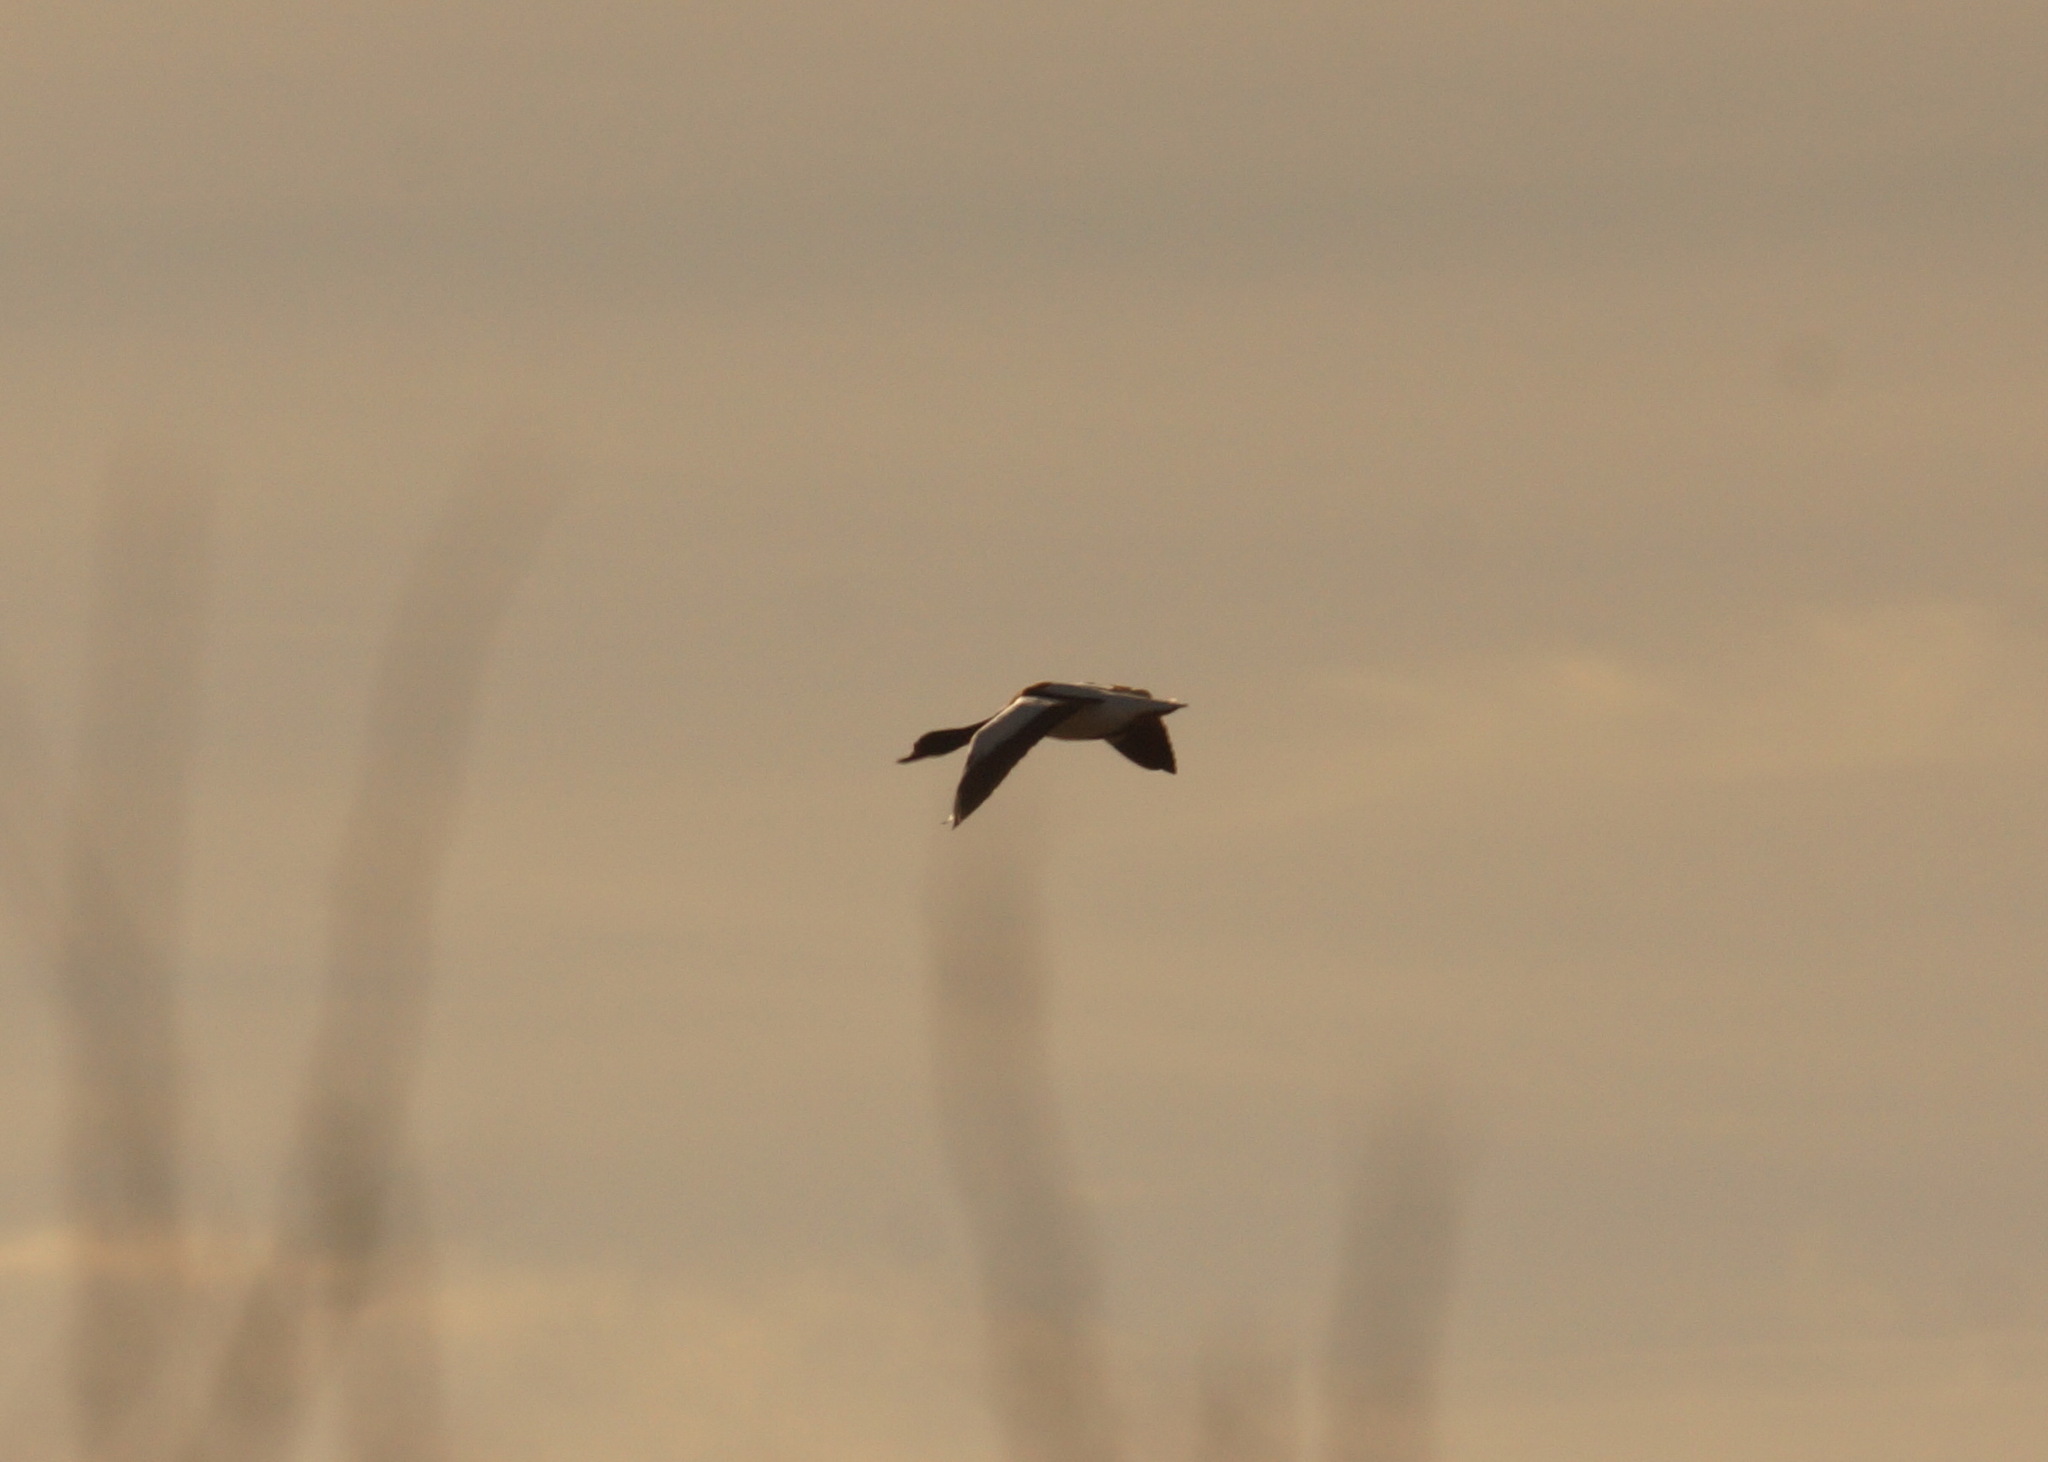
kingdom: Animalia
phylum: Chordata
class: Aves
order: Anseriformes
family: Anatidae
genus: Tadorna
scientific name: Tadorna tadorna
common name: Common shelduck
